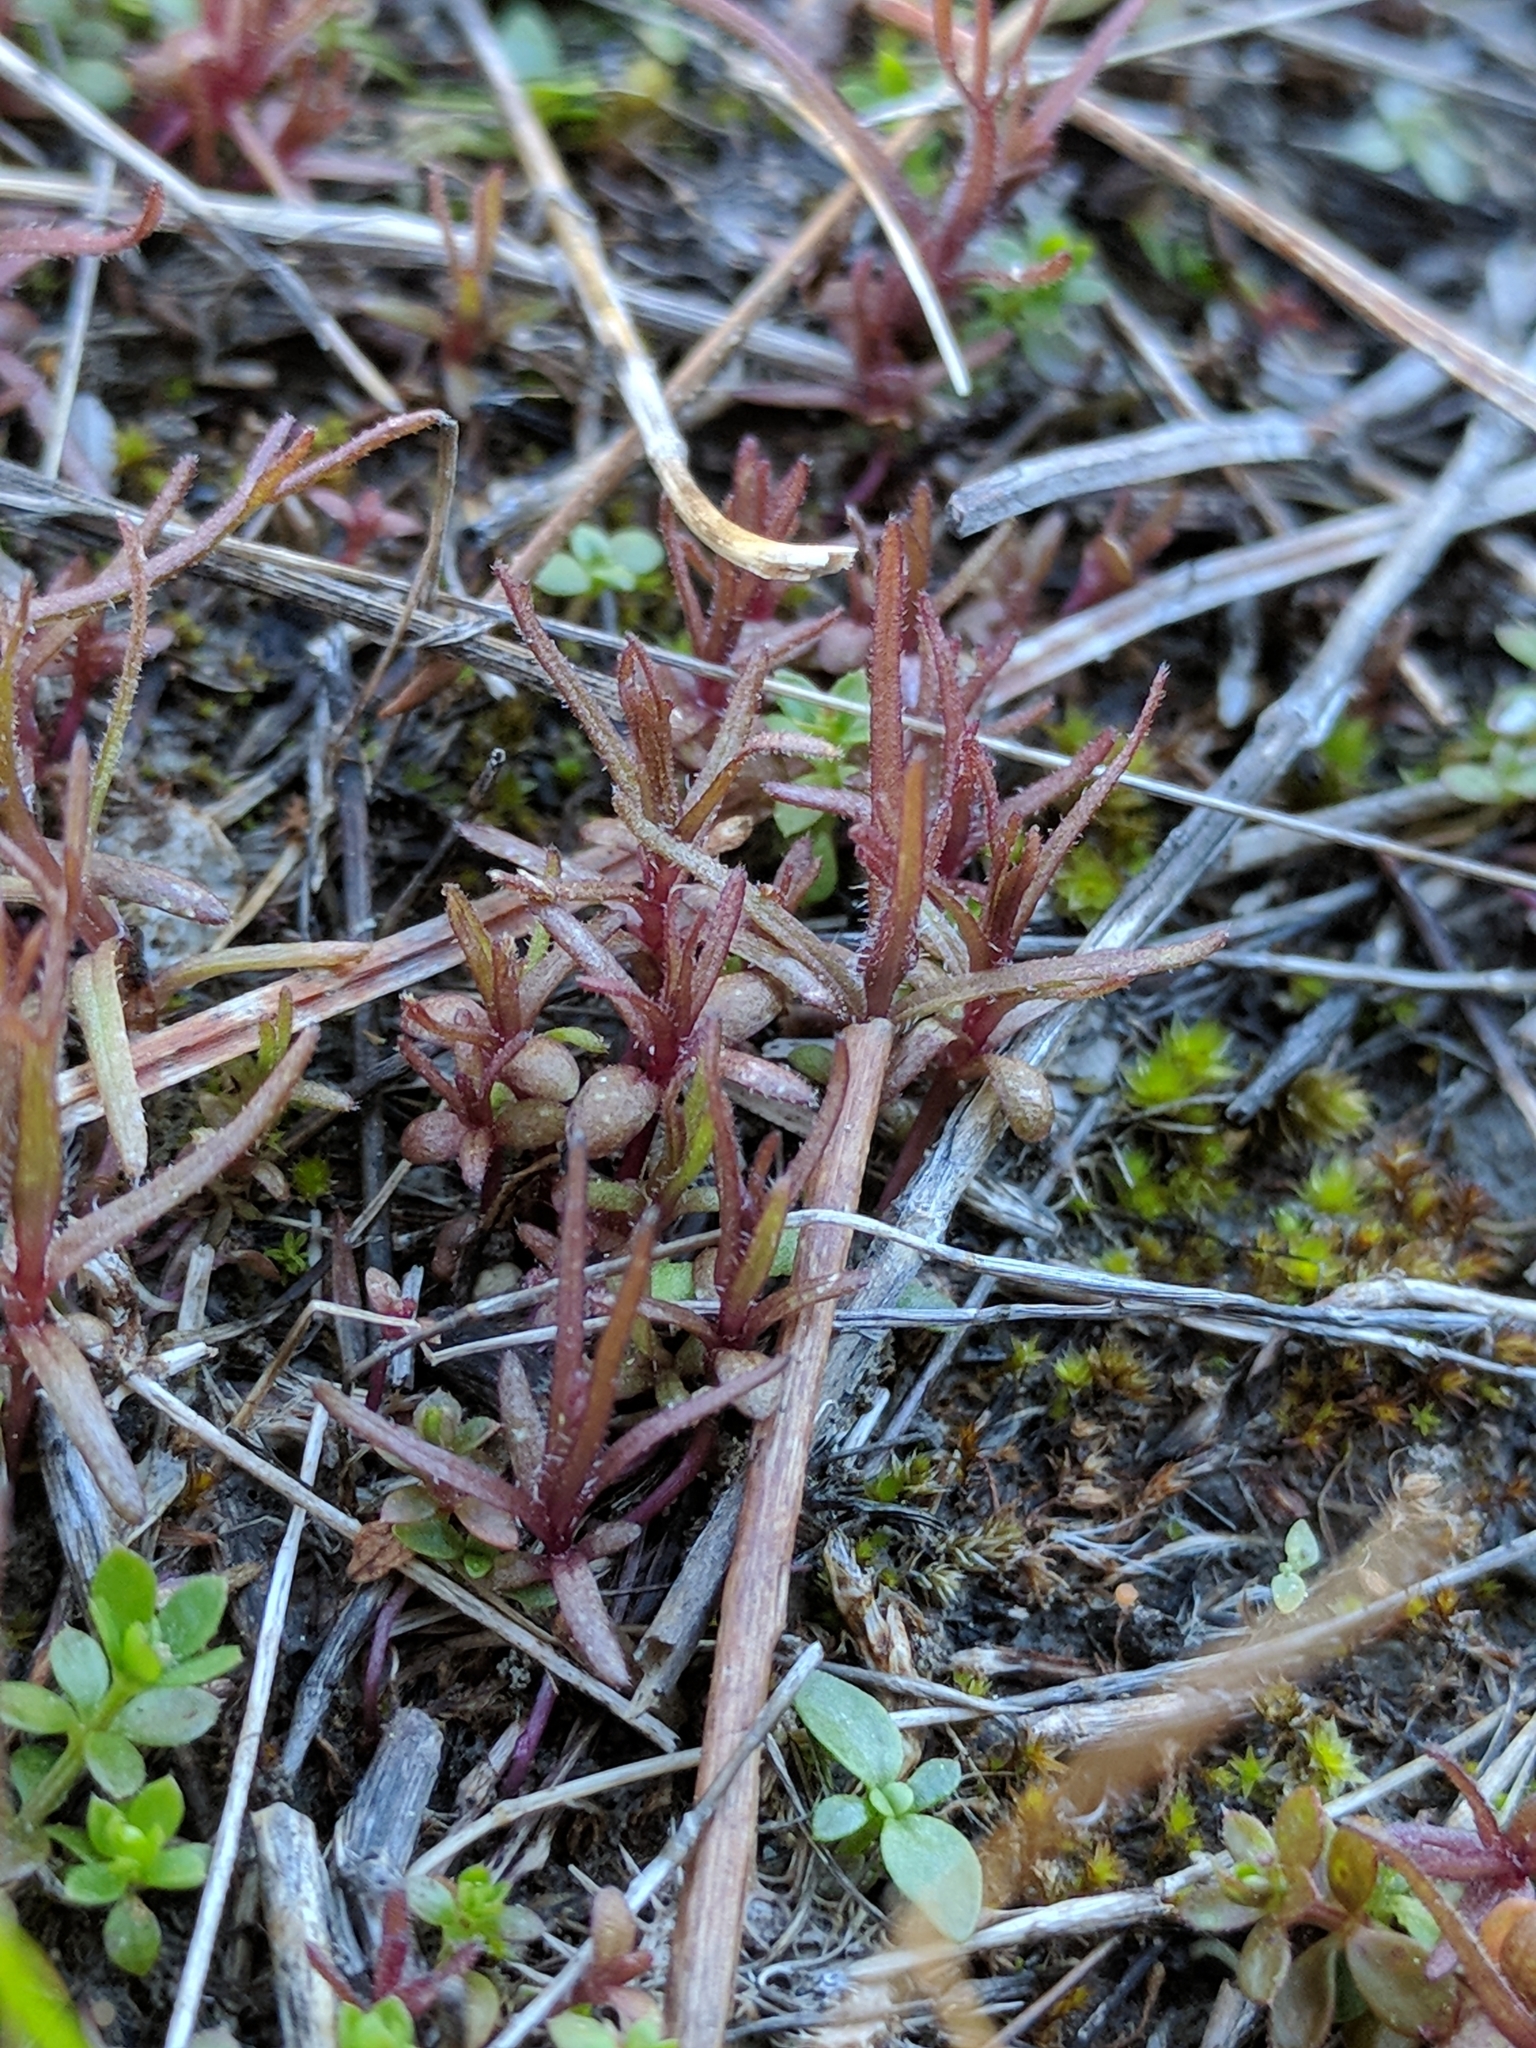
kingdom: Plantae
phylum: Tracheophyta
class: Magnoliopsida
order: Lamiales
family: Orobanchaceae
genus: Triphysaria
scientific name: Triphysaria pusilla
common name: Dwarf false owl-clover
